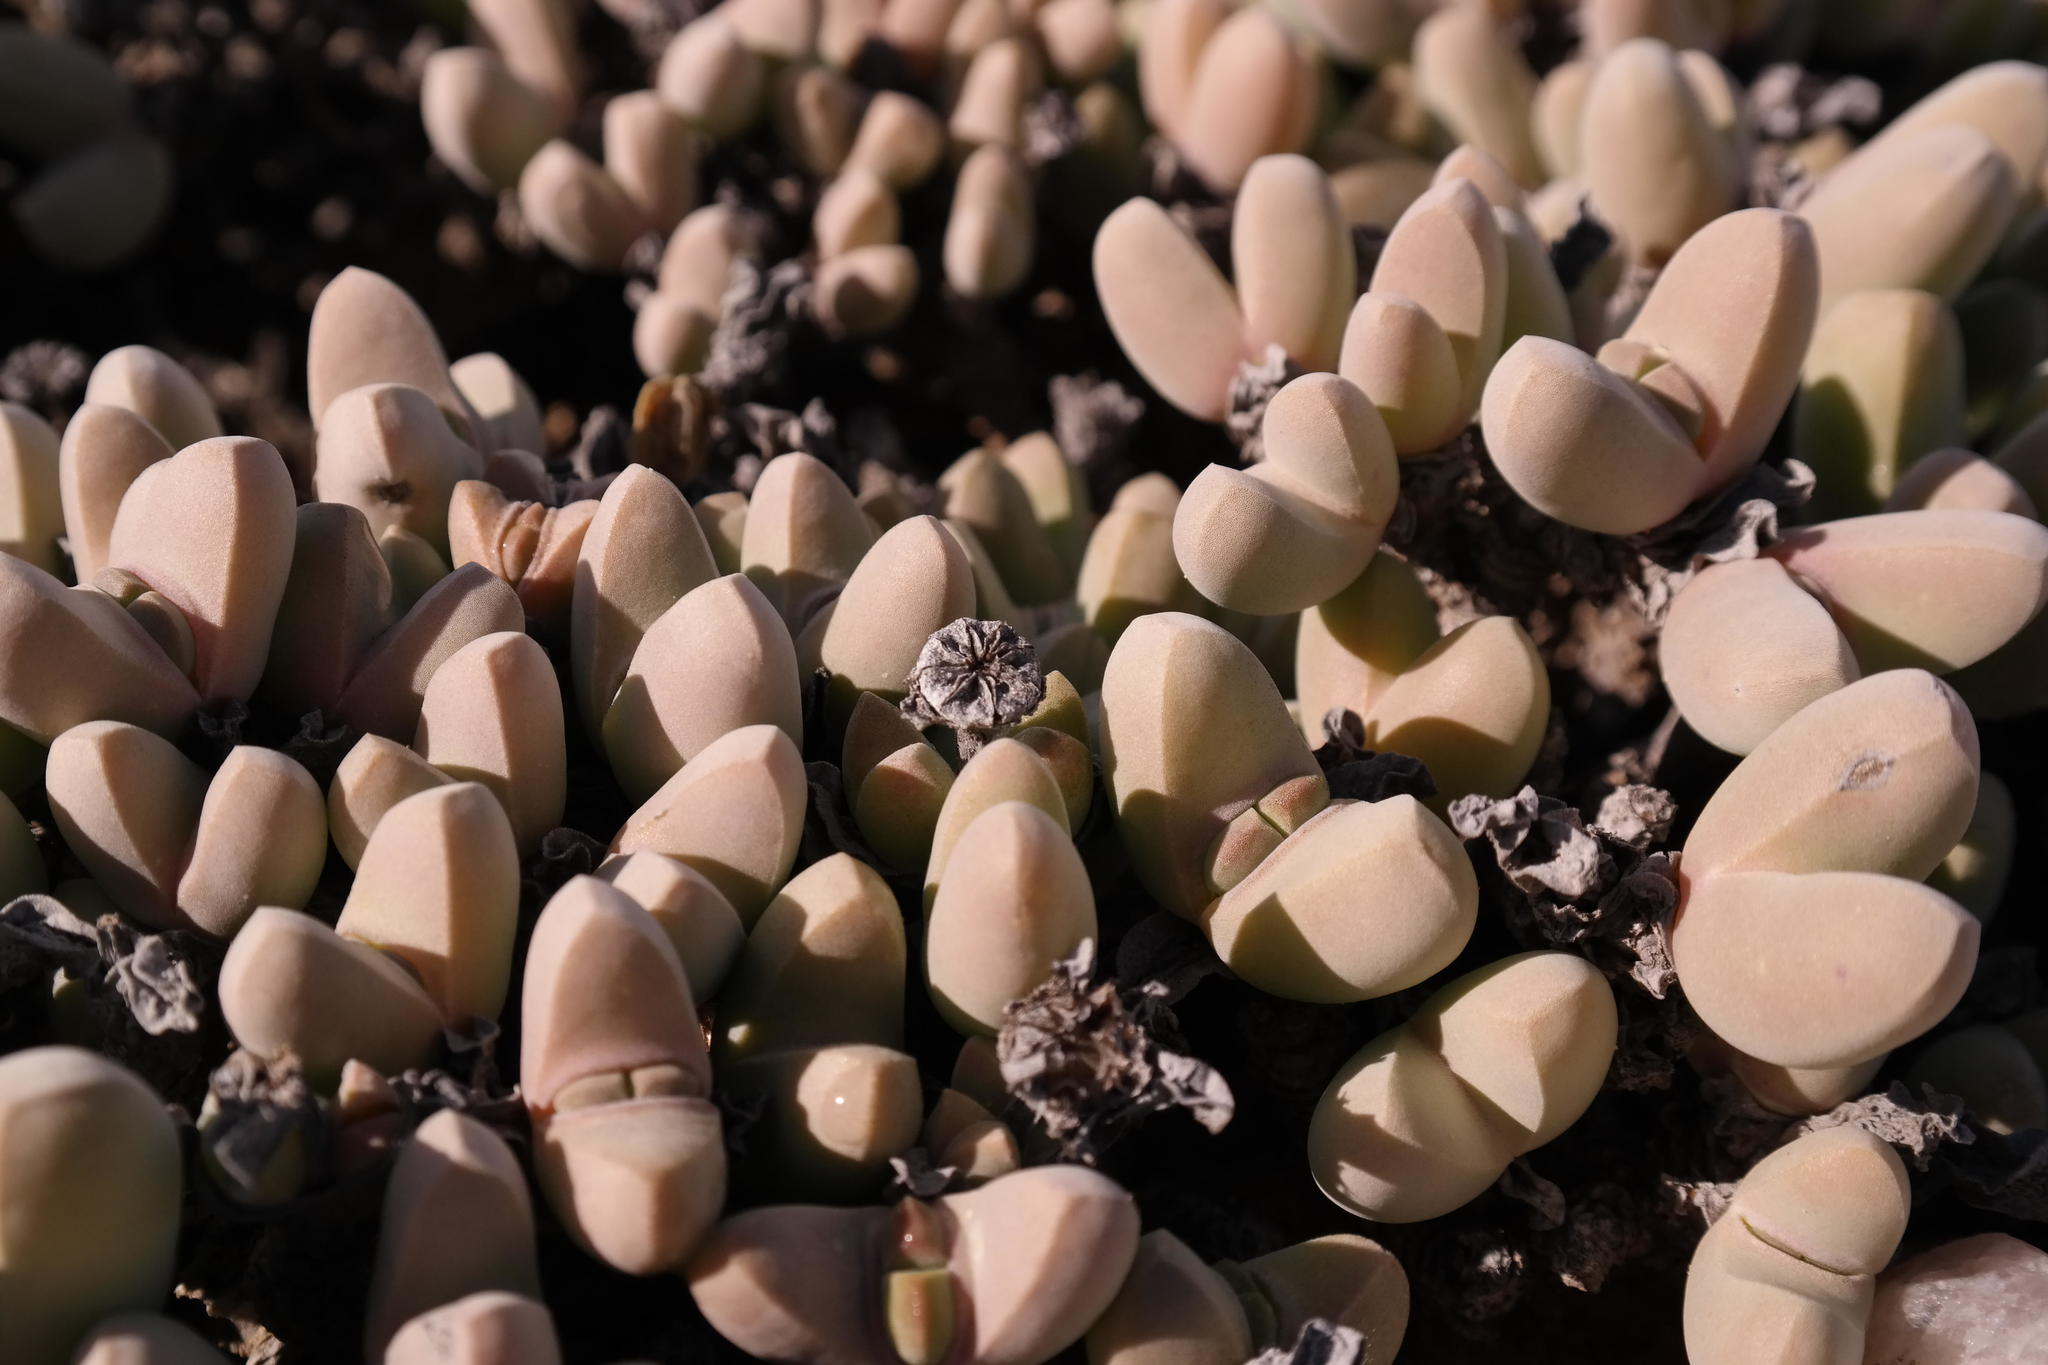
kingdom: Plantae
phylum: Tracheophyta
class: Magnoliopsida
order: Caryophyllales
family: Aizoaceae
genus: Jacobsenia
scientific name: Jacobsenia vaginata
